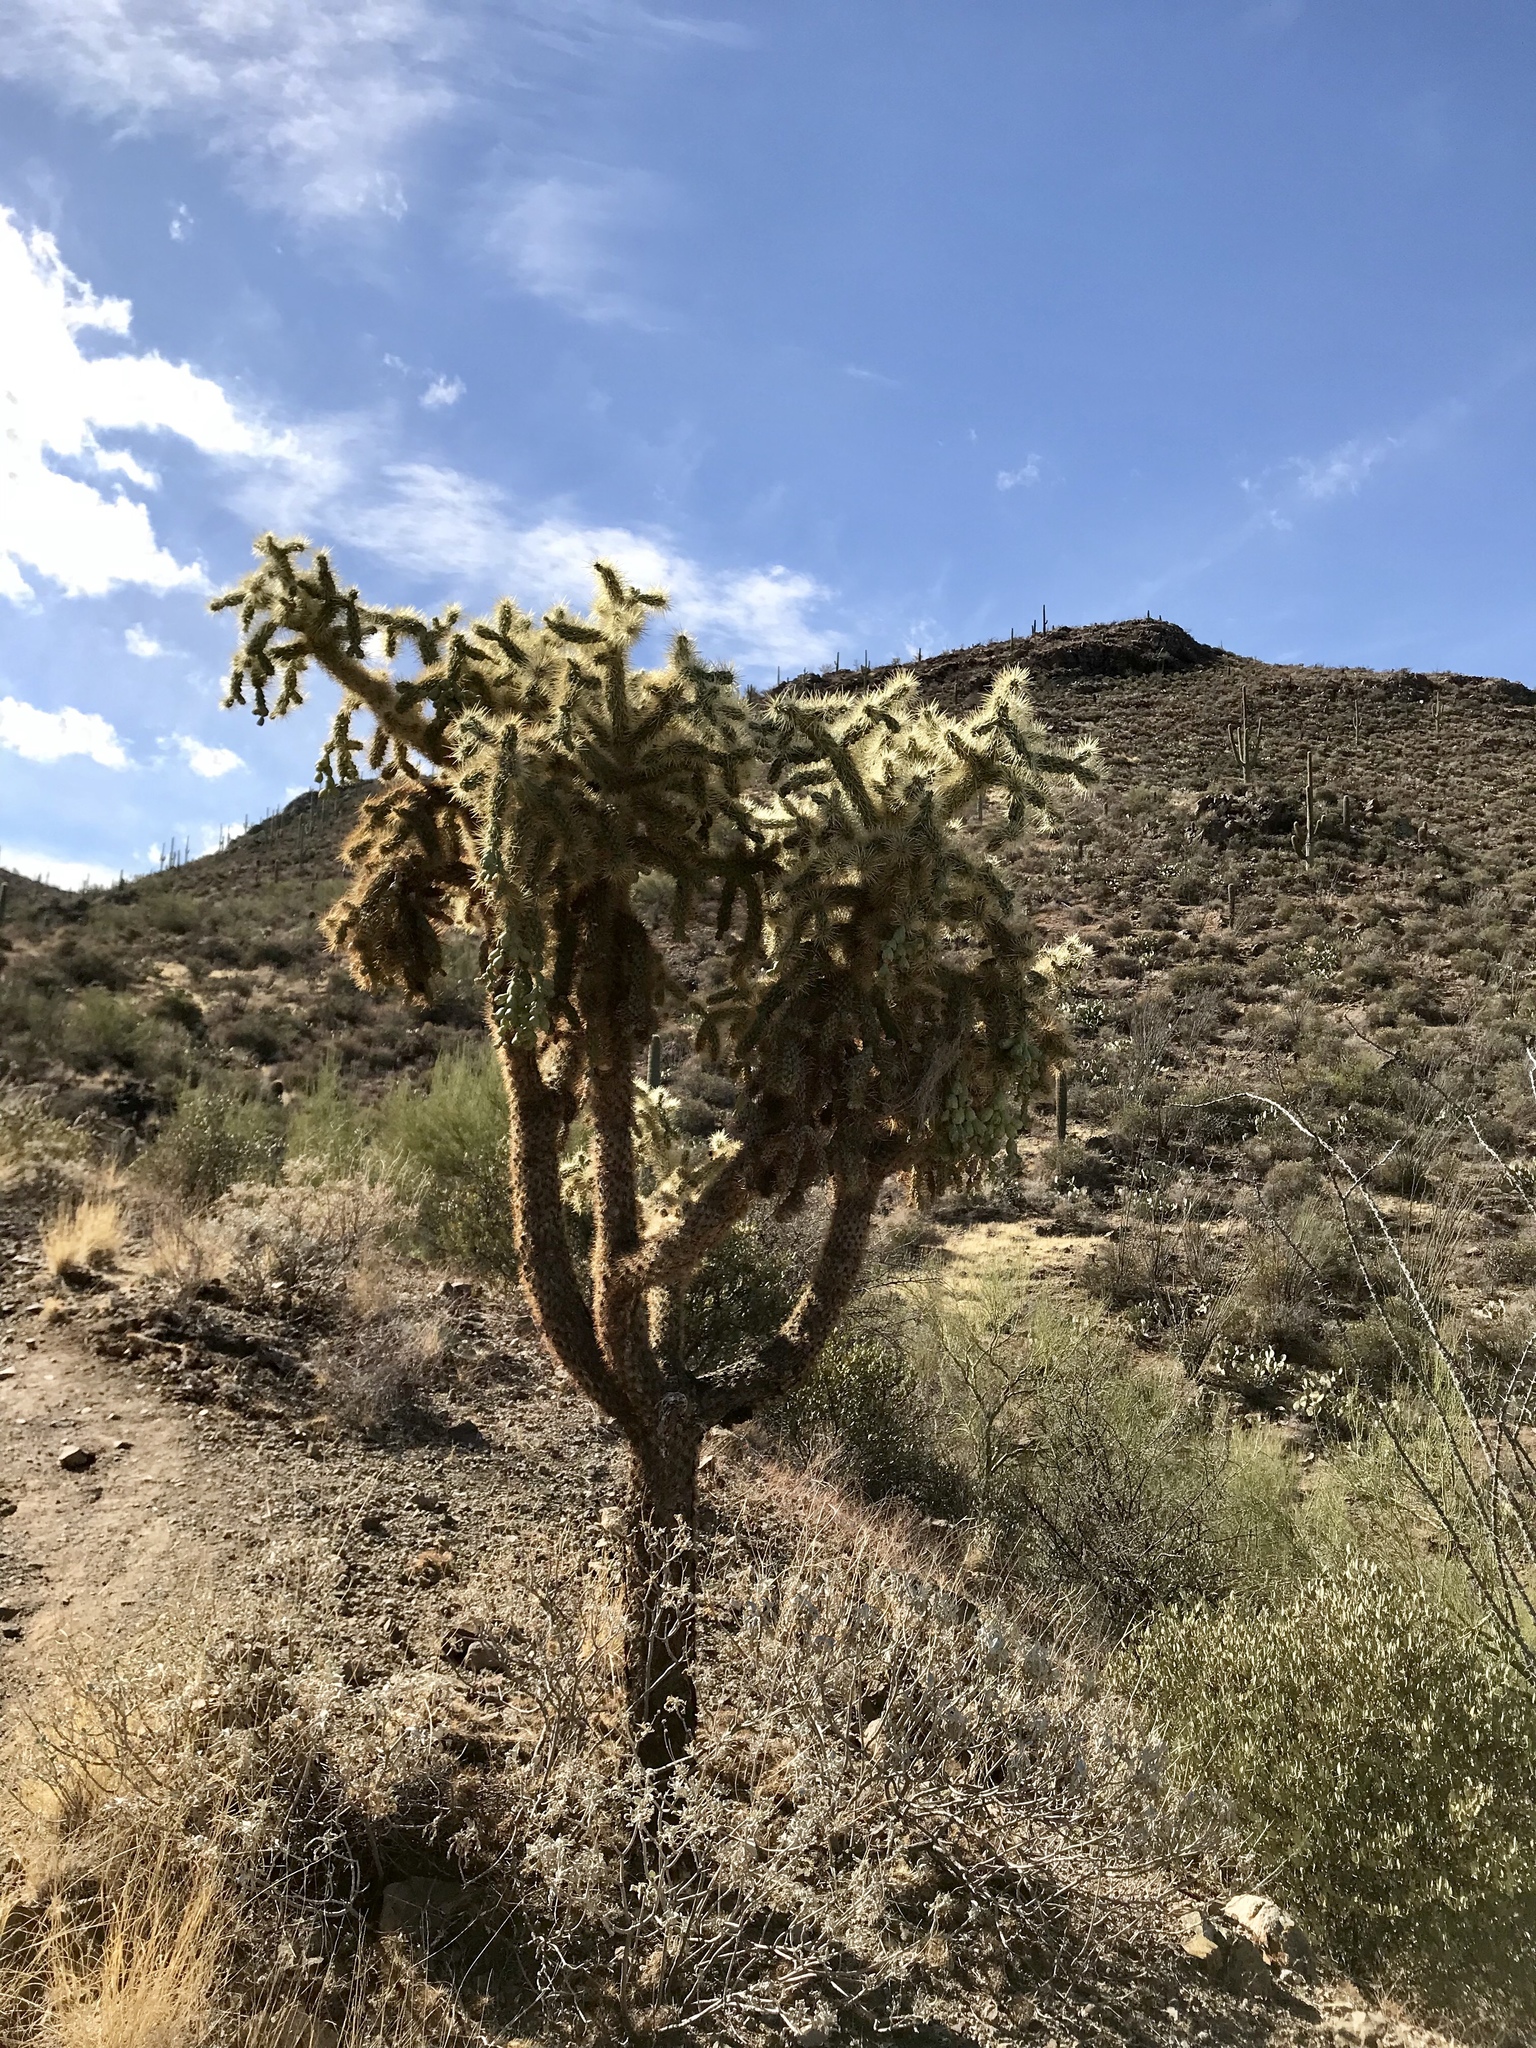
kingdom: Plantae
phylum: Tracheophyta
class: Magnoliopsida
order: Caryophyllales
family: Cactaceae
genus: Cylindropuntia
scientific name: Cylindropuntia fulgida
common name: Jumping cholla
